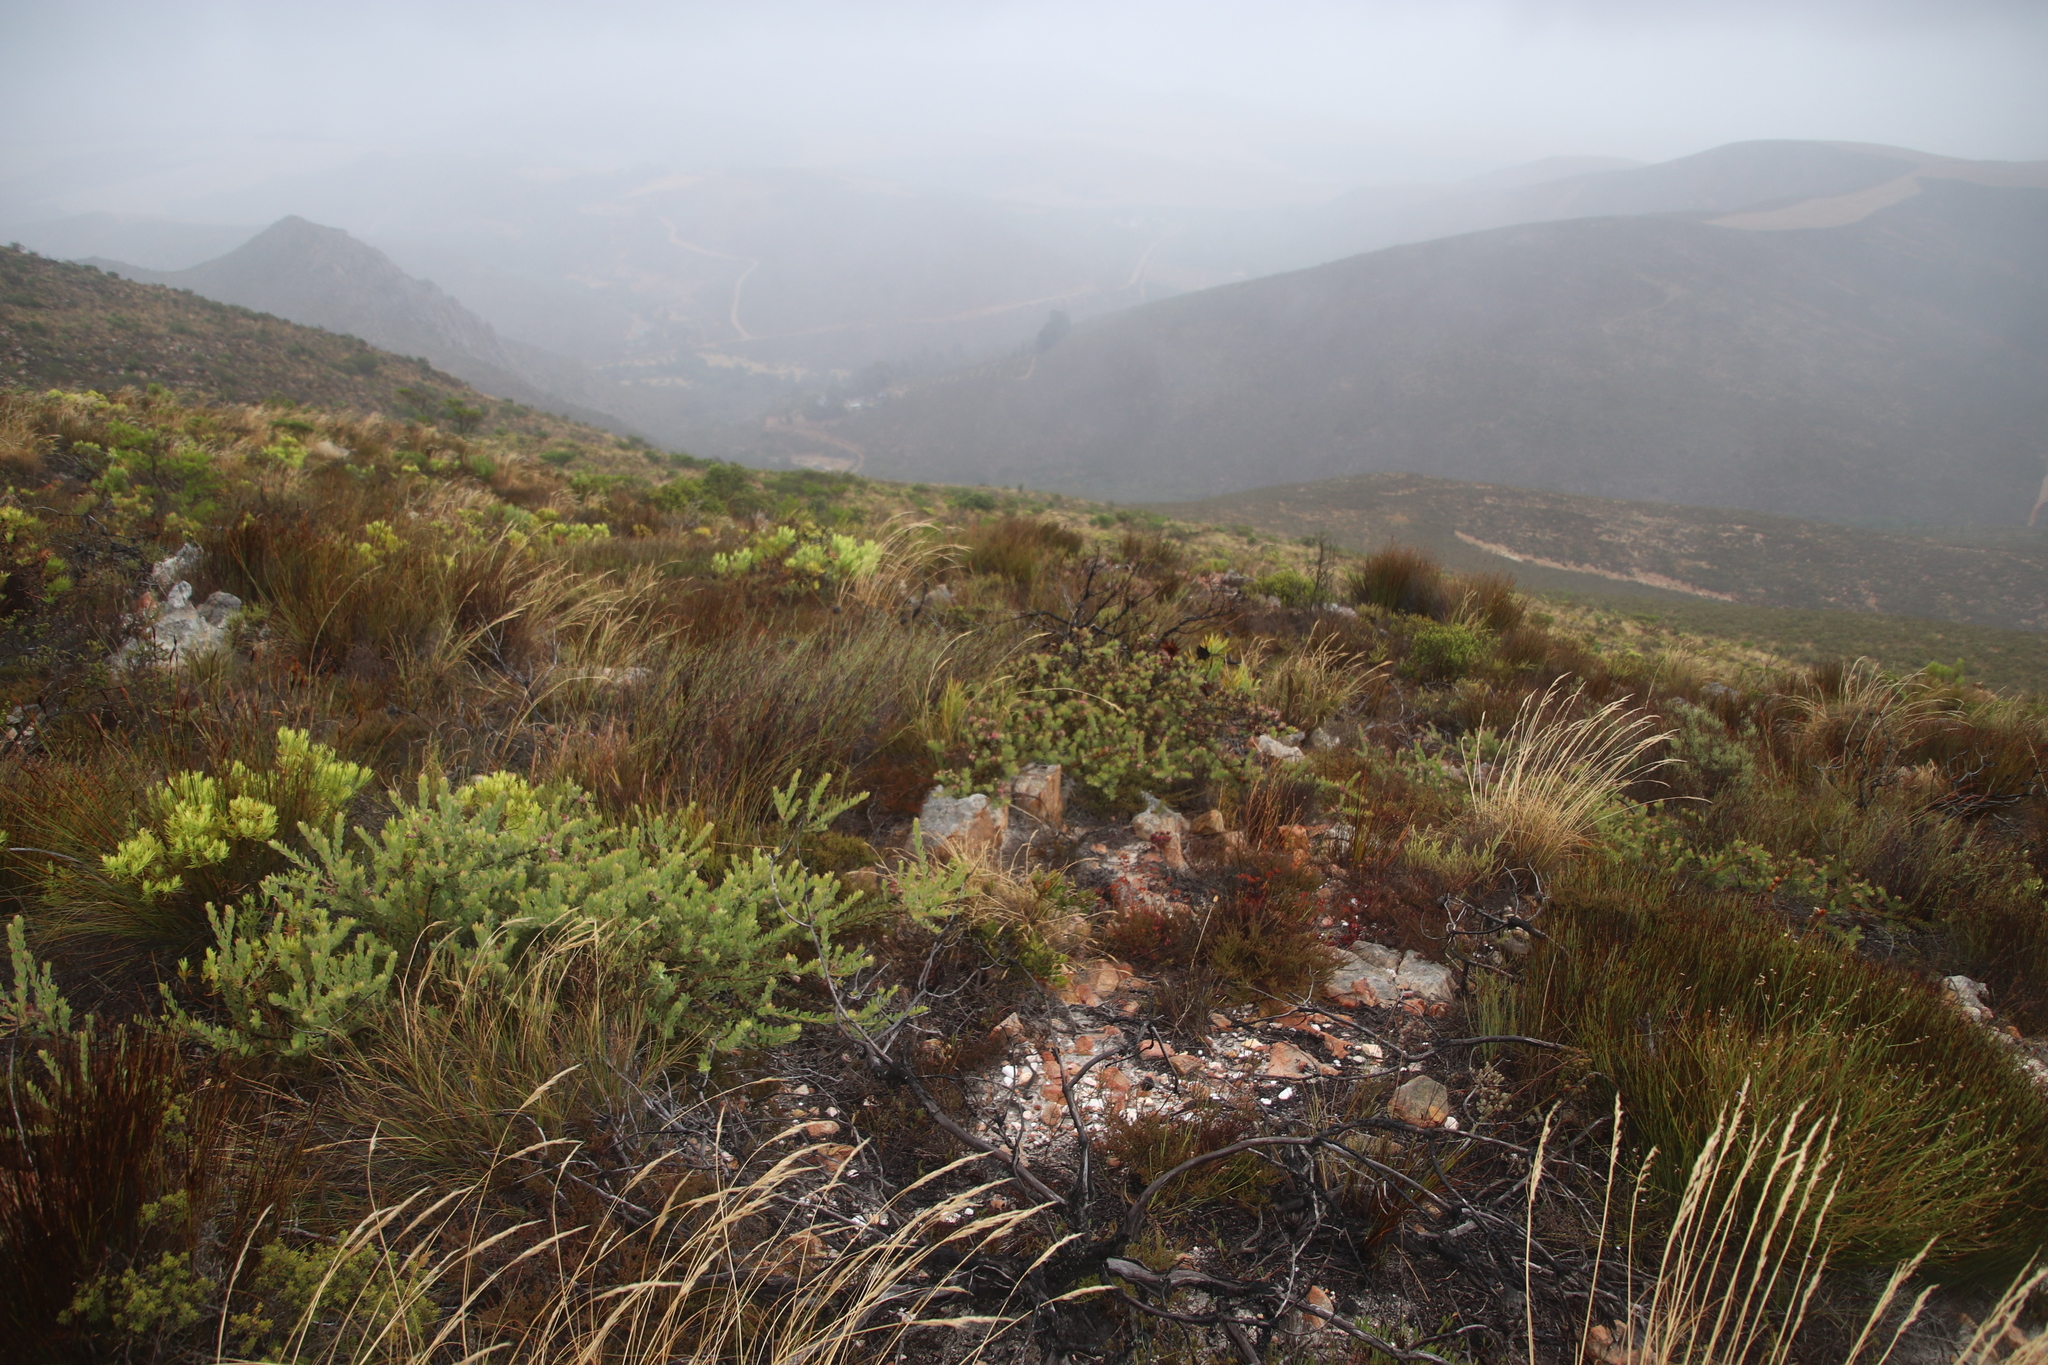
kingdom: Plantae
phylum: Tracheophyta
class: Magnoliopsida
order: Proteales
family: Proteaceae
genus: Leucospermum
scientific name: Leucospermum calligerum
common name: Arid pincushion
